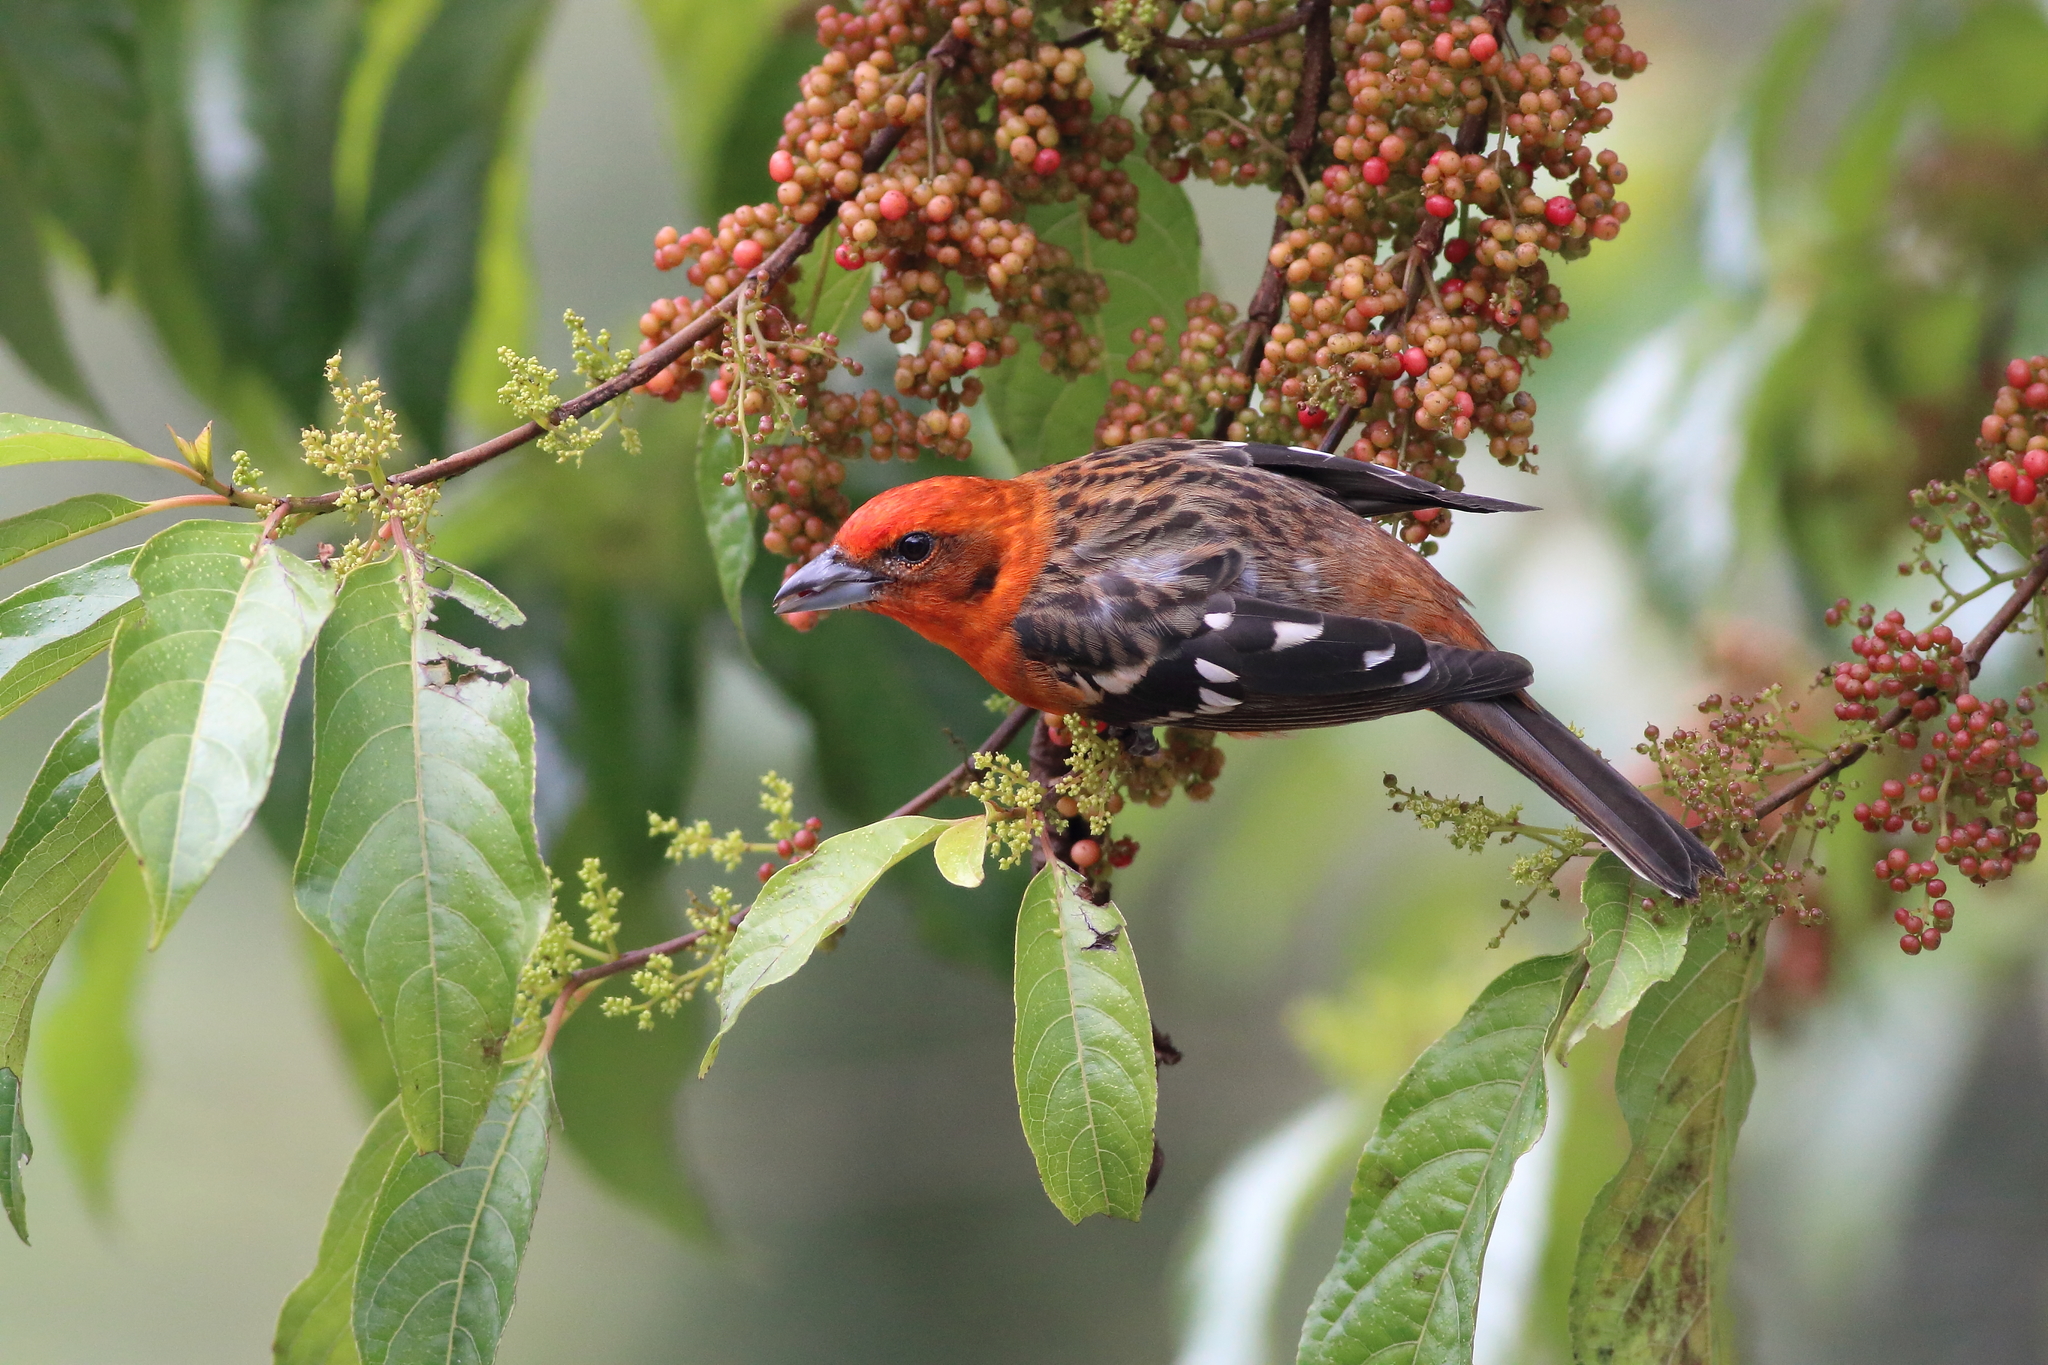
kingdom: Animalia
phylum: Chordata
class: Aves
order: Passeriformes
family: Cardinalidae
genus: Piranga
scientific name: Piranga bidentata
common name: Flame-colored tanager
